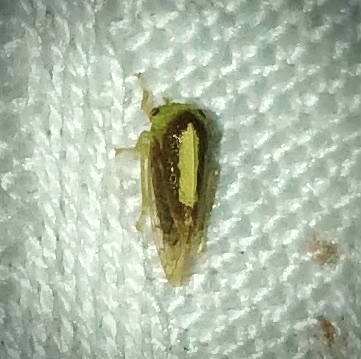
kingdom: Animalia
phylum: Arthropoda
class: Insecta
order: Hemiptera
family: Membracidae
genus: Atymna
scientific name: Atymna querci
